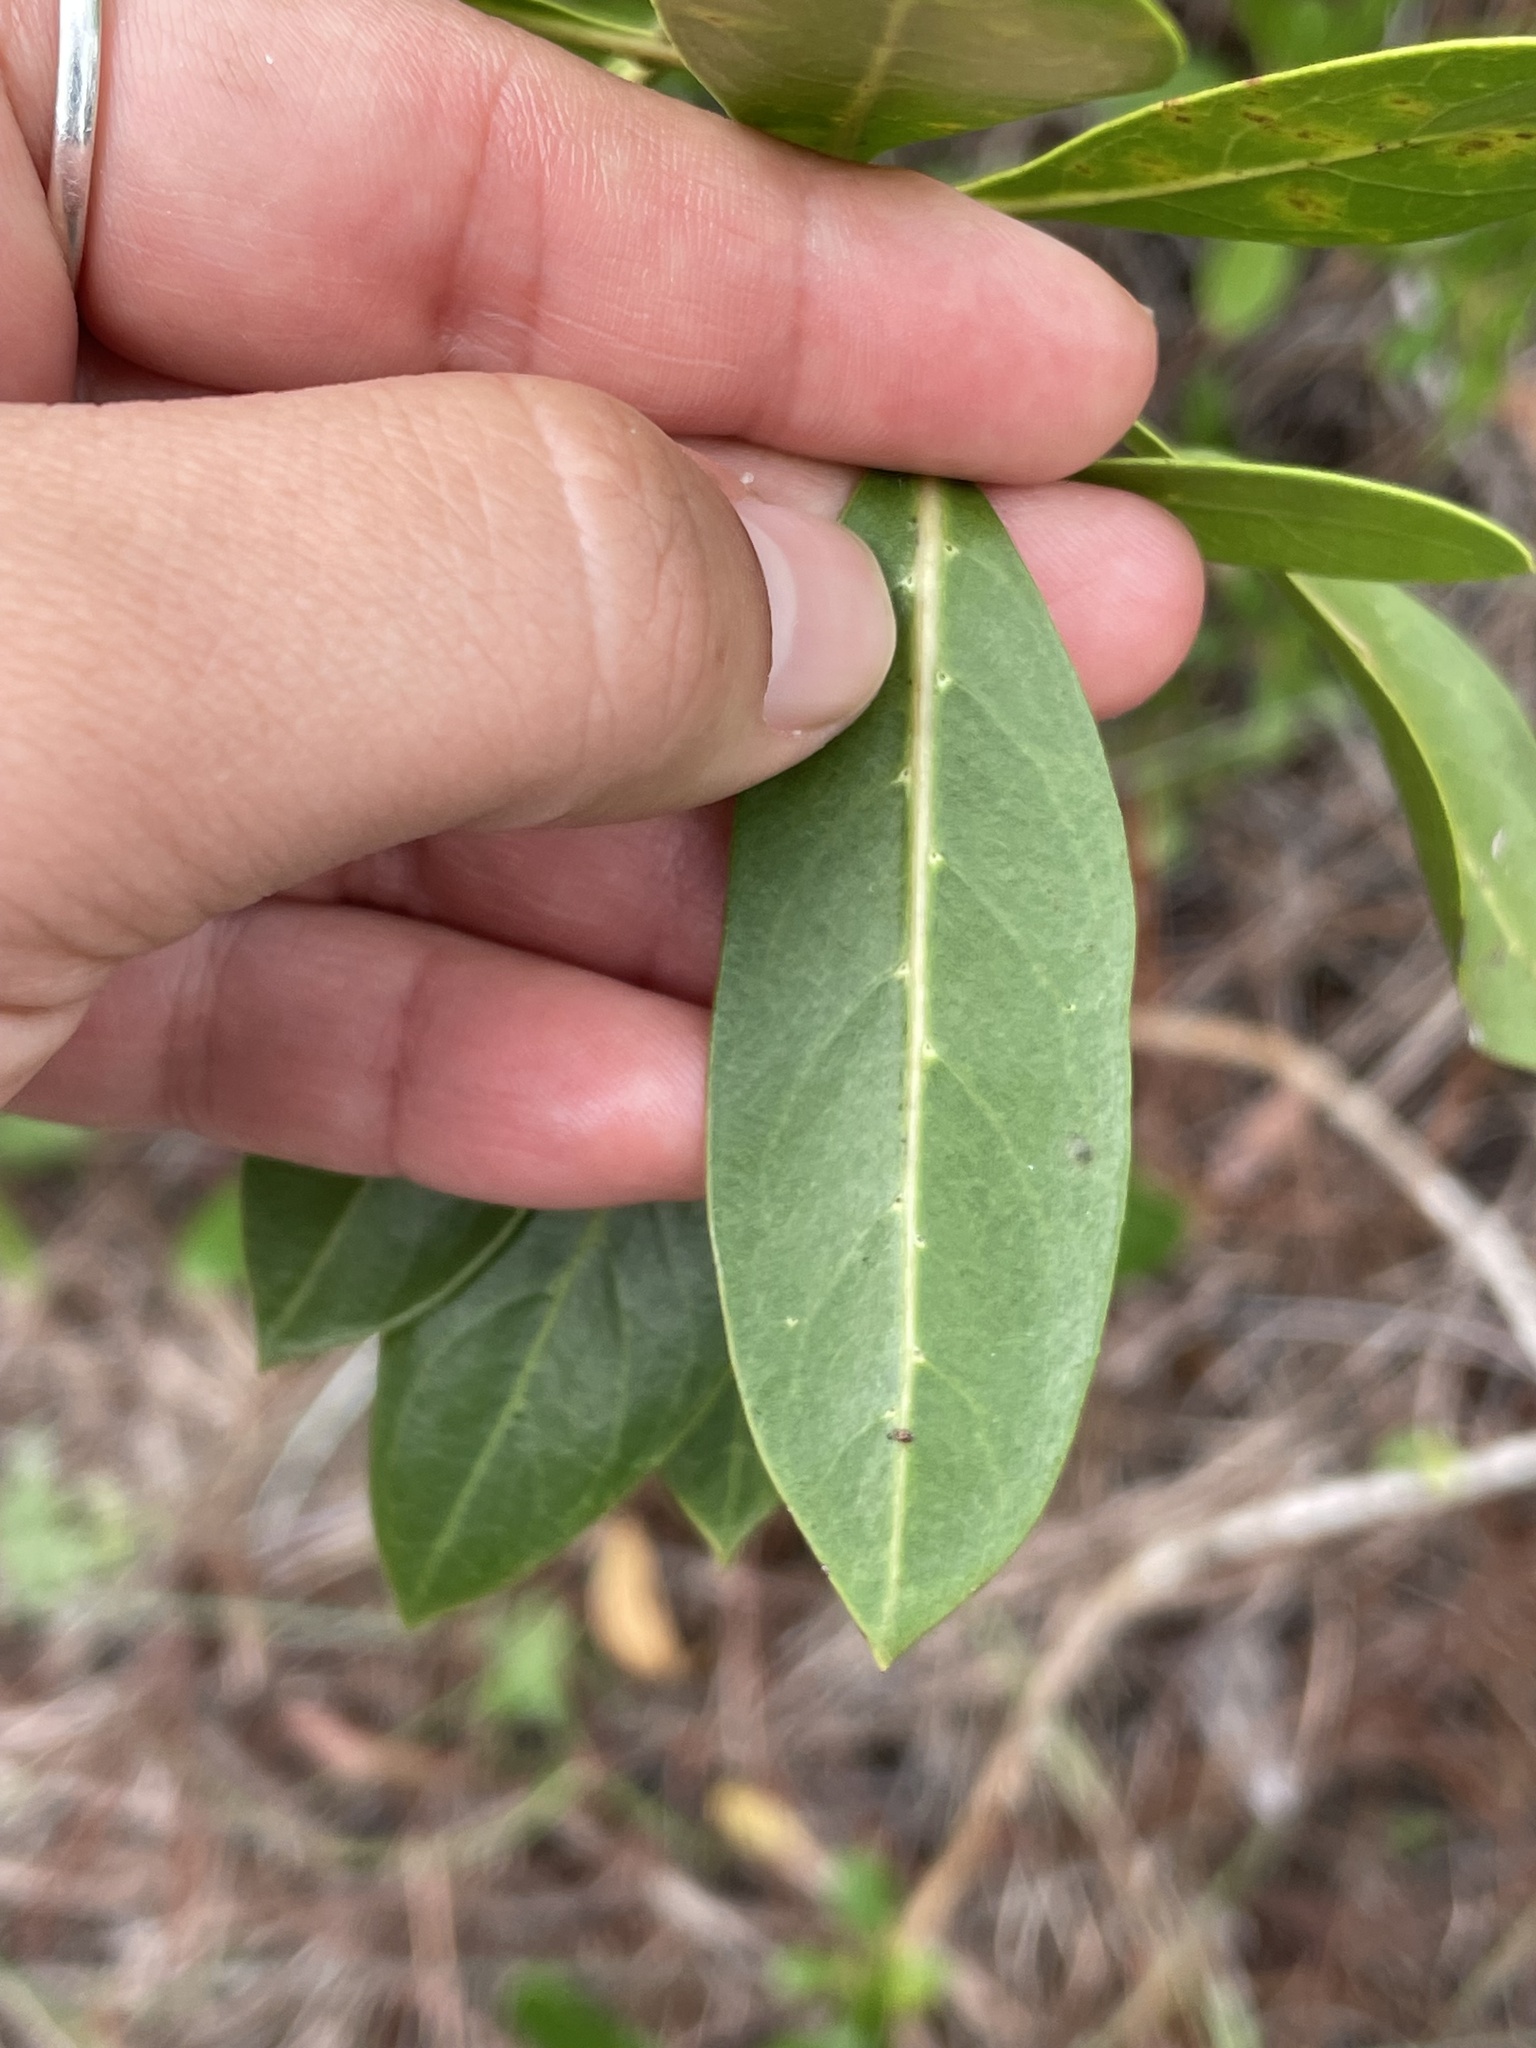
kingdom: Plantae
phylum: Tracheophyta
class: Magnoliopsida
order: Myrtales
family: Combretaceae
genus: Conocarpus
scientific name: Conocarpus erectus
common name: Button mangrove
